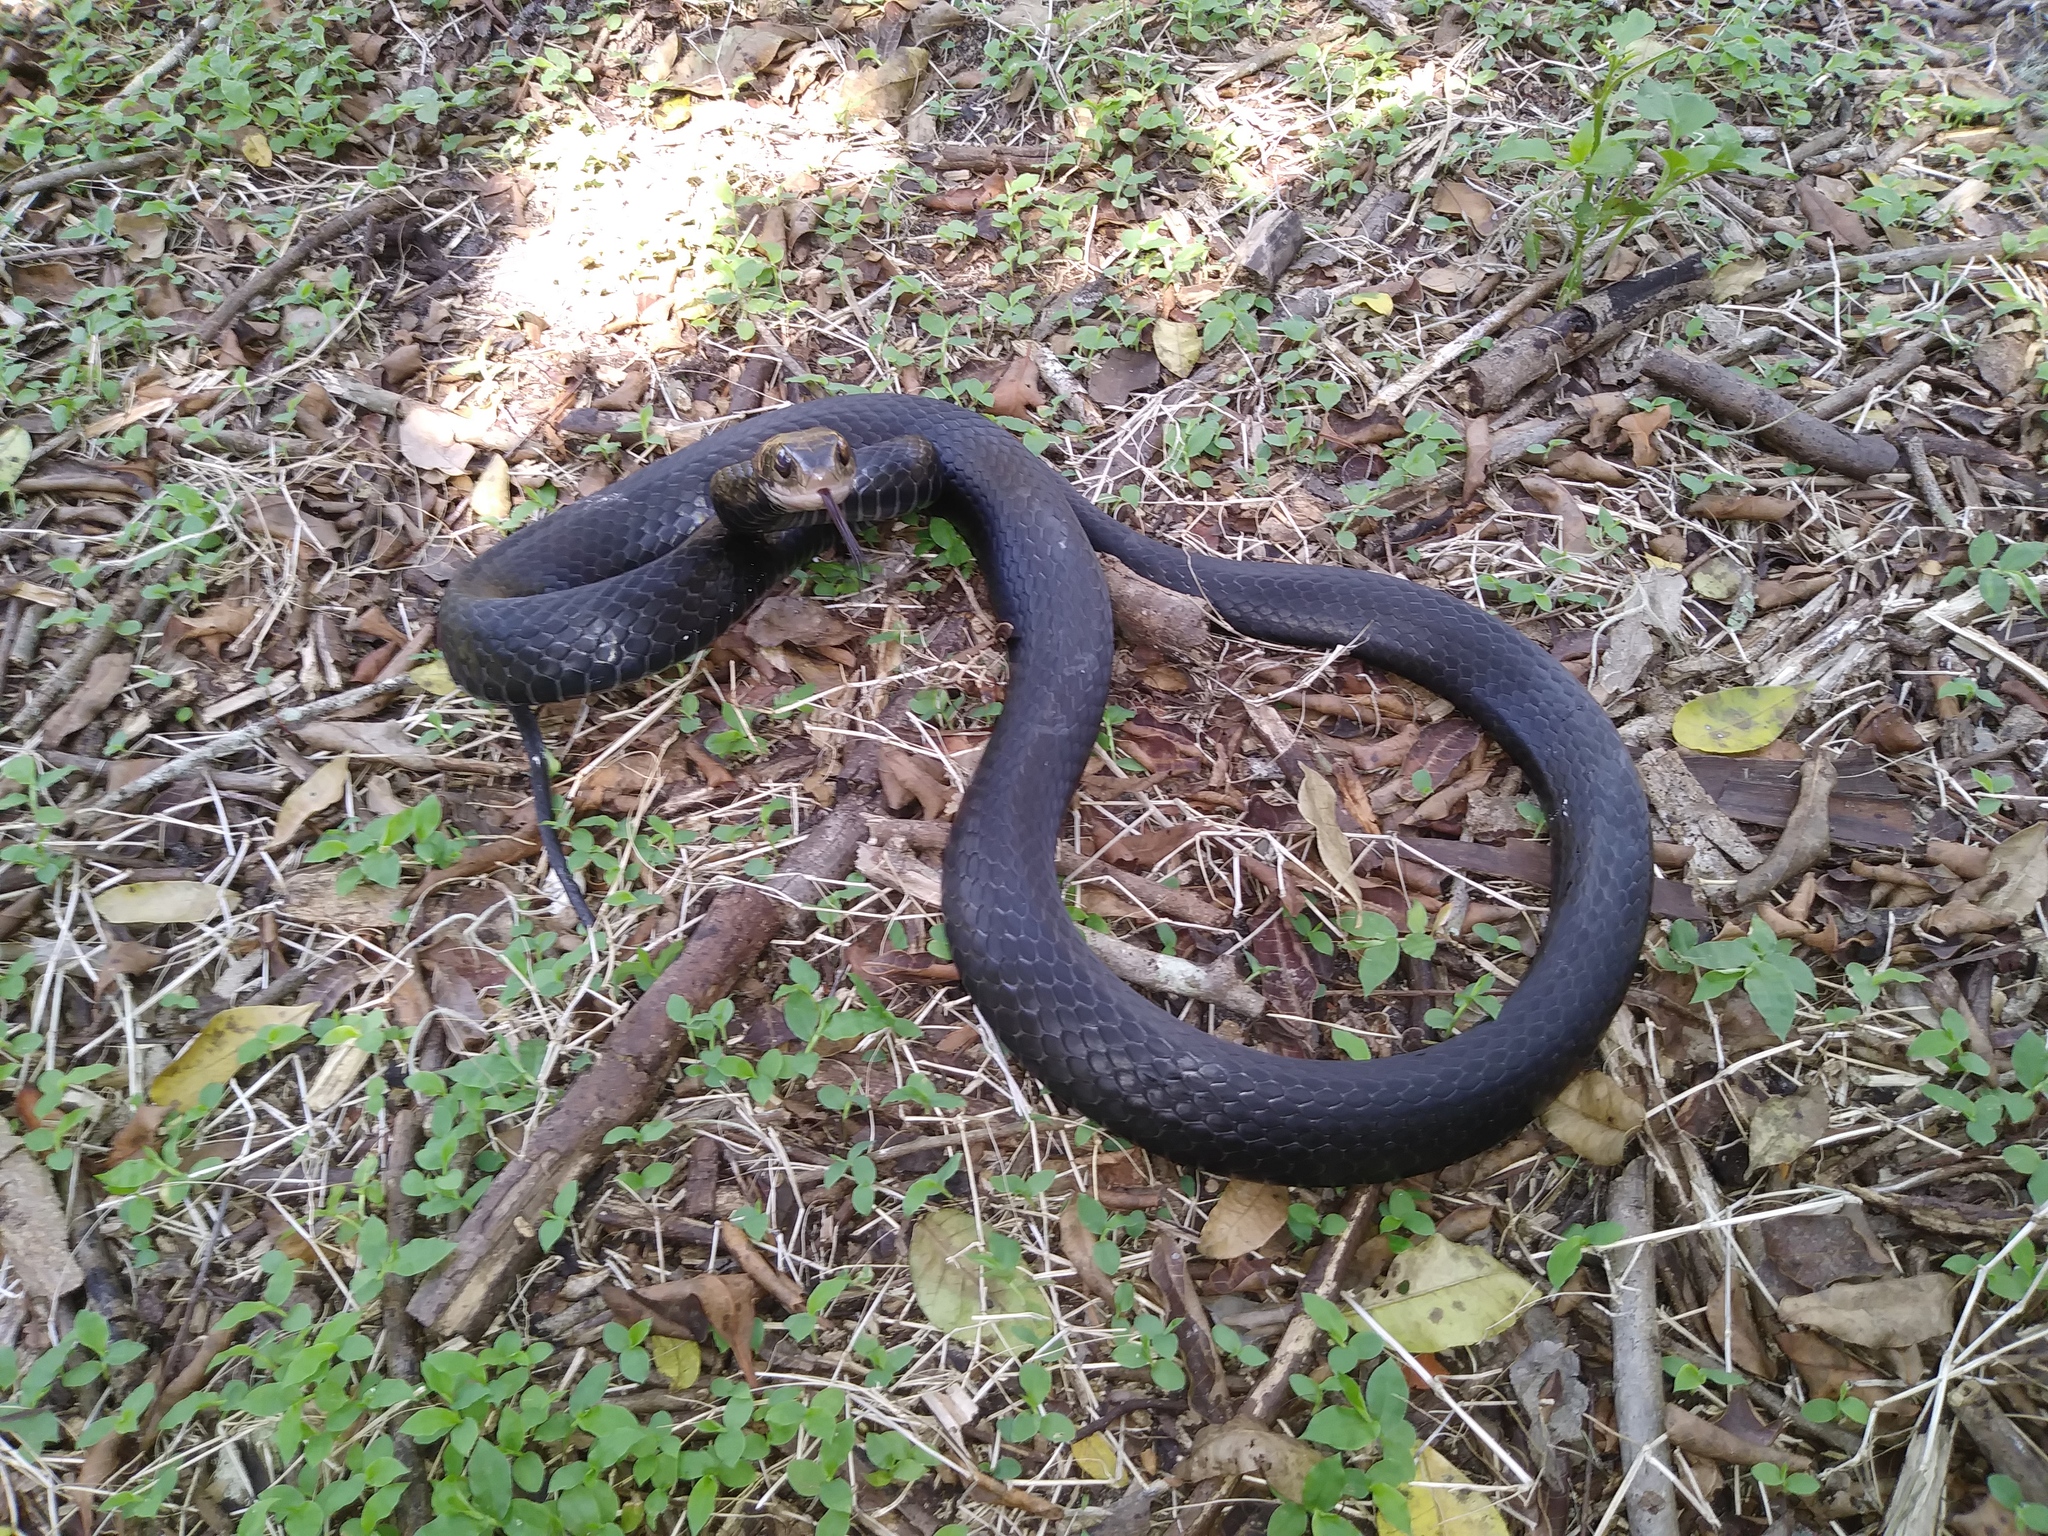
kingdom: Animalia
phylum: Chordata
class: Squamata
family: Colubridae
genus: Coluber
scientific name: Coluber constrictor
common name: Eastern racer
